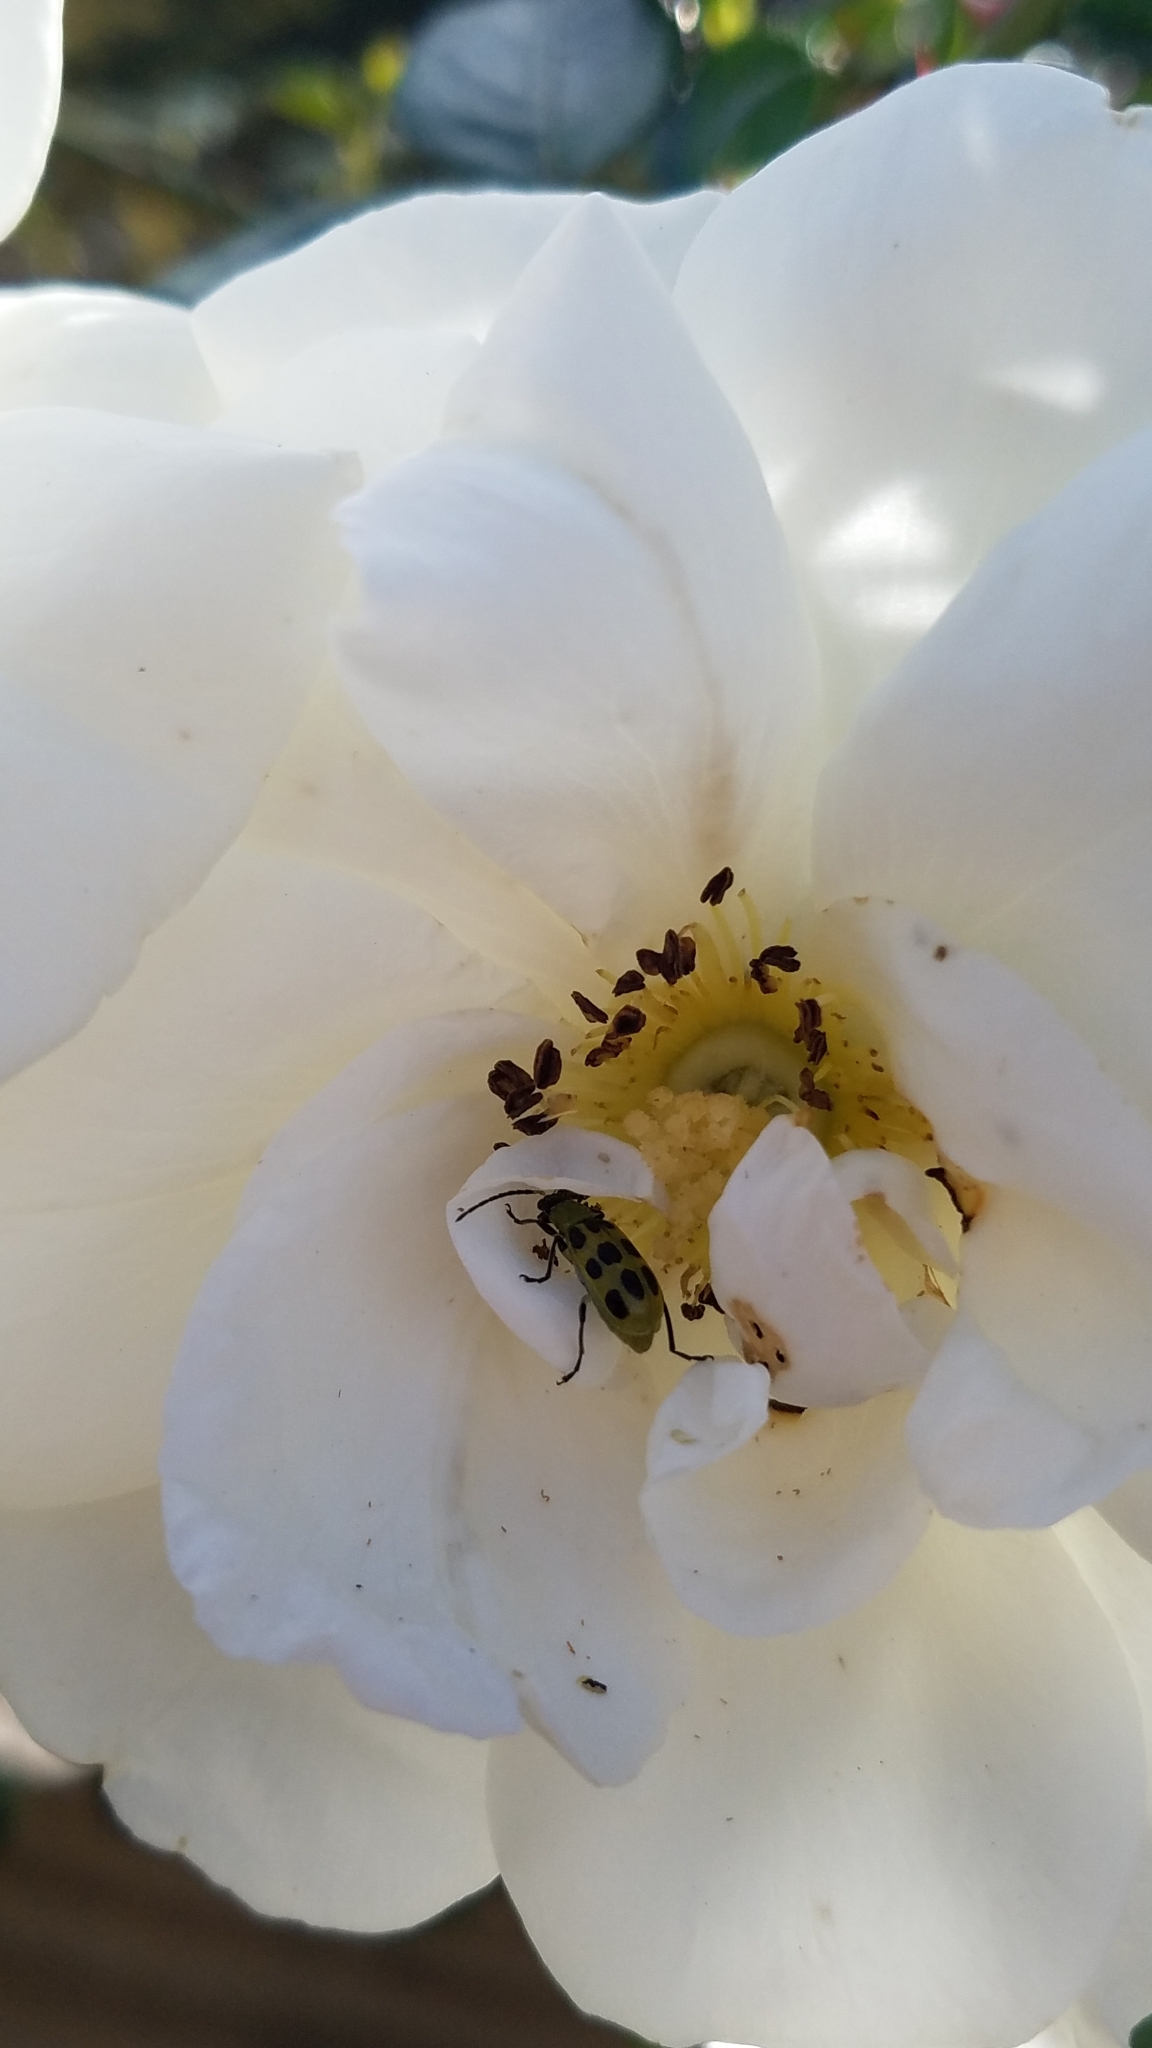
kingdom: Animalia
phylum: Arthropoda
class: Insecta
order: Coleoptera
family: Chrysomelidae
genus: Diabrotica
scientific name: Diabrotica undecimpunctata
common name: Spotted cucumber beetle
